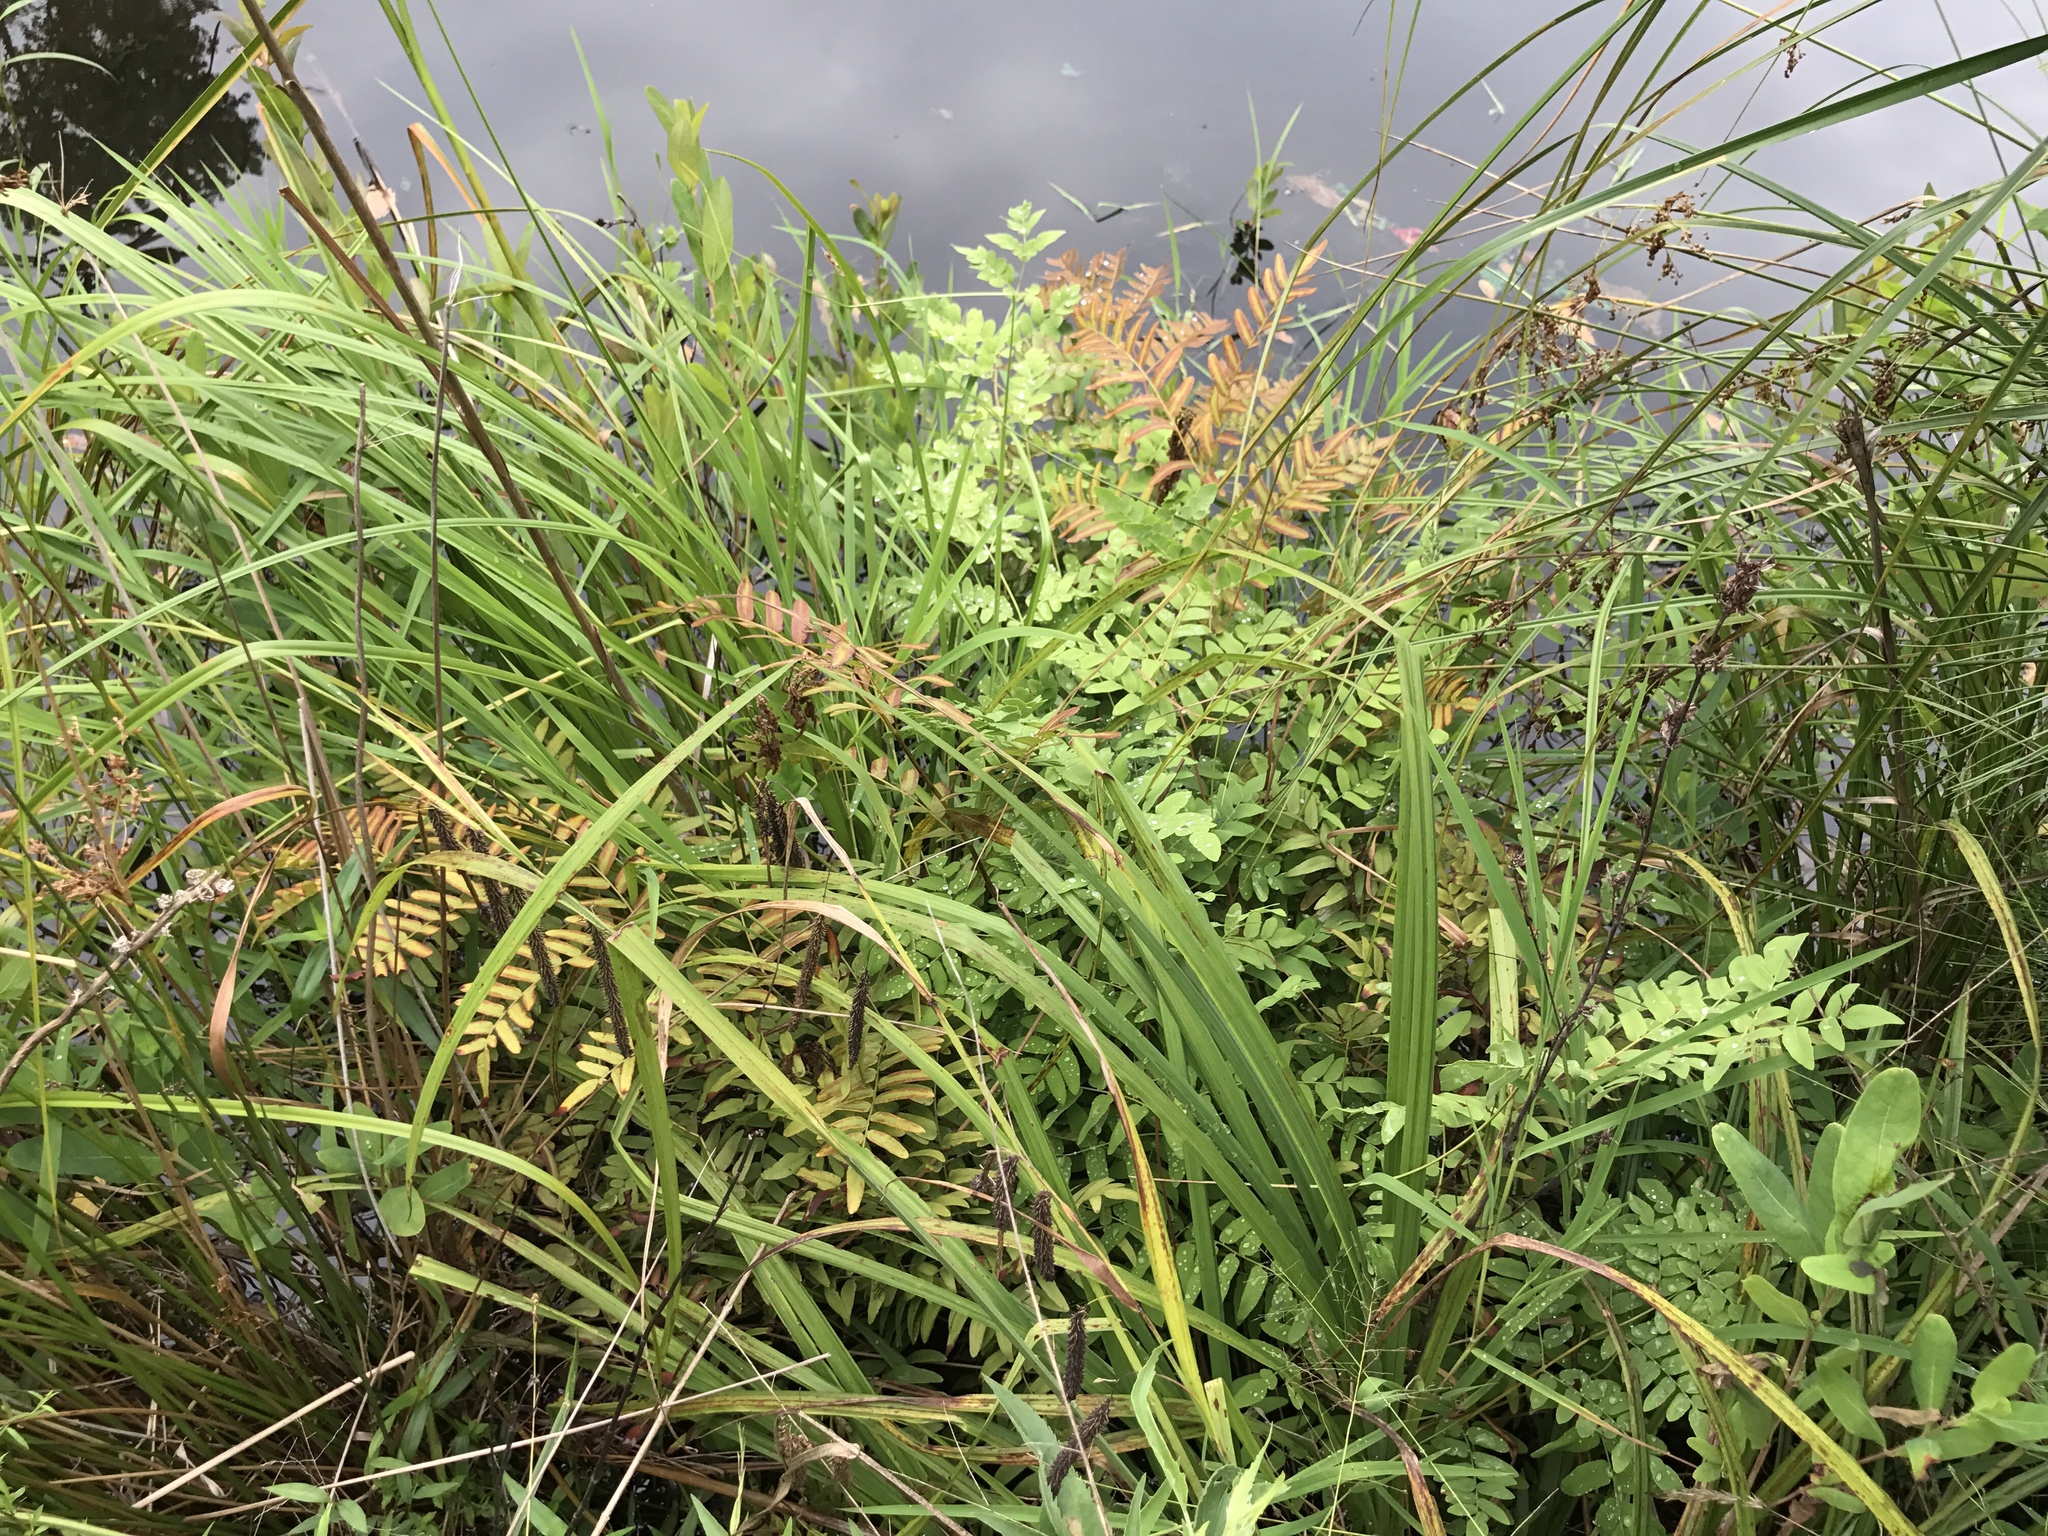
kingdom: Plantae
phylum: Tracheophyta
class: Polypodiopsida
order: Osmundales
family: Osmundaceae
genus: Osmunda
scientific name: Osmunda spectabilis
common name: American royal fern
